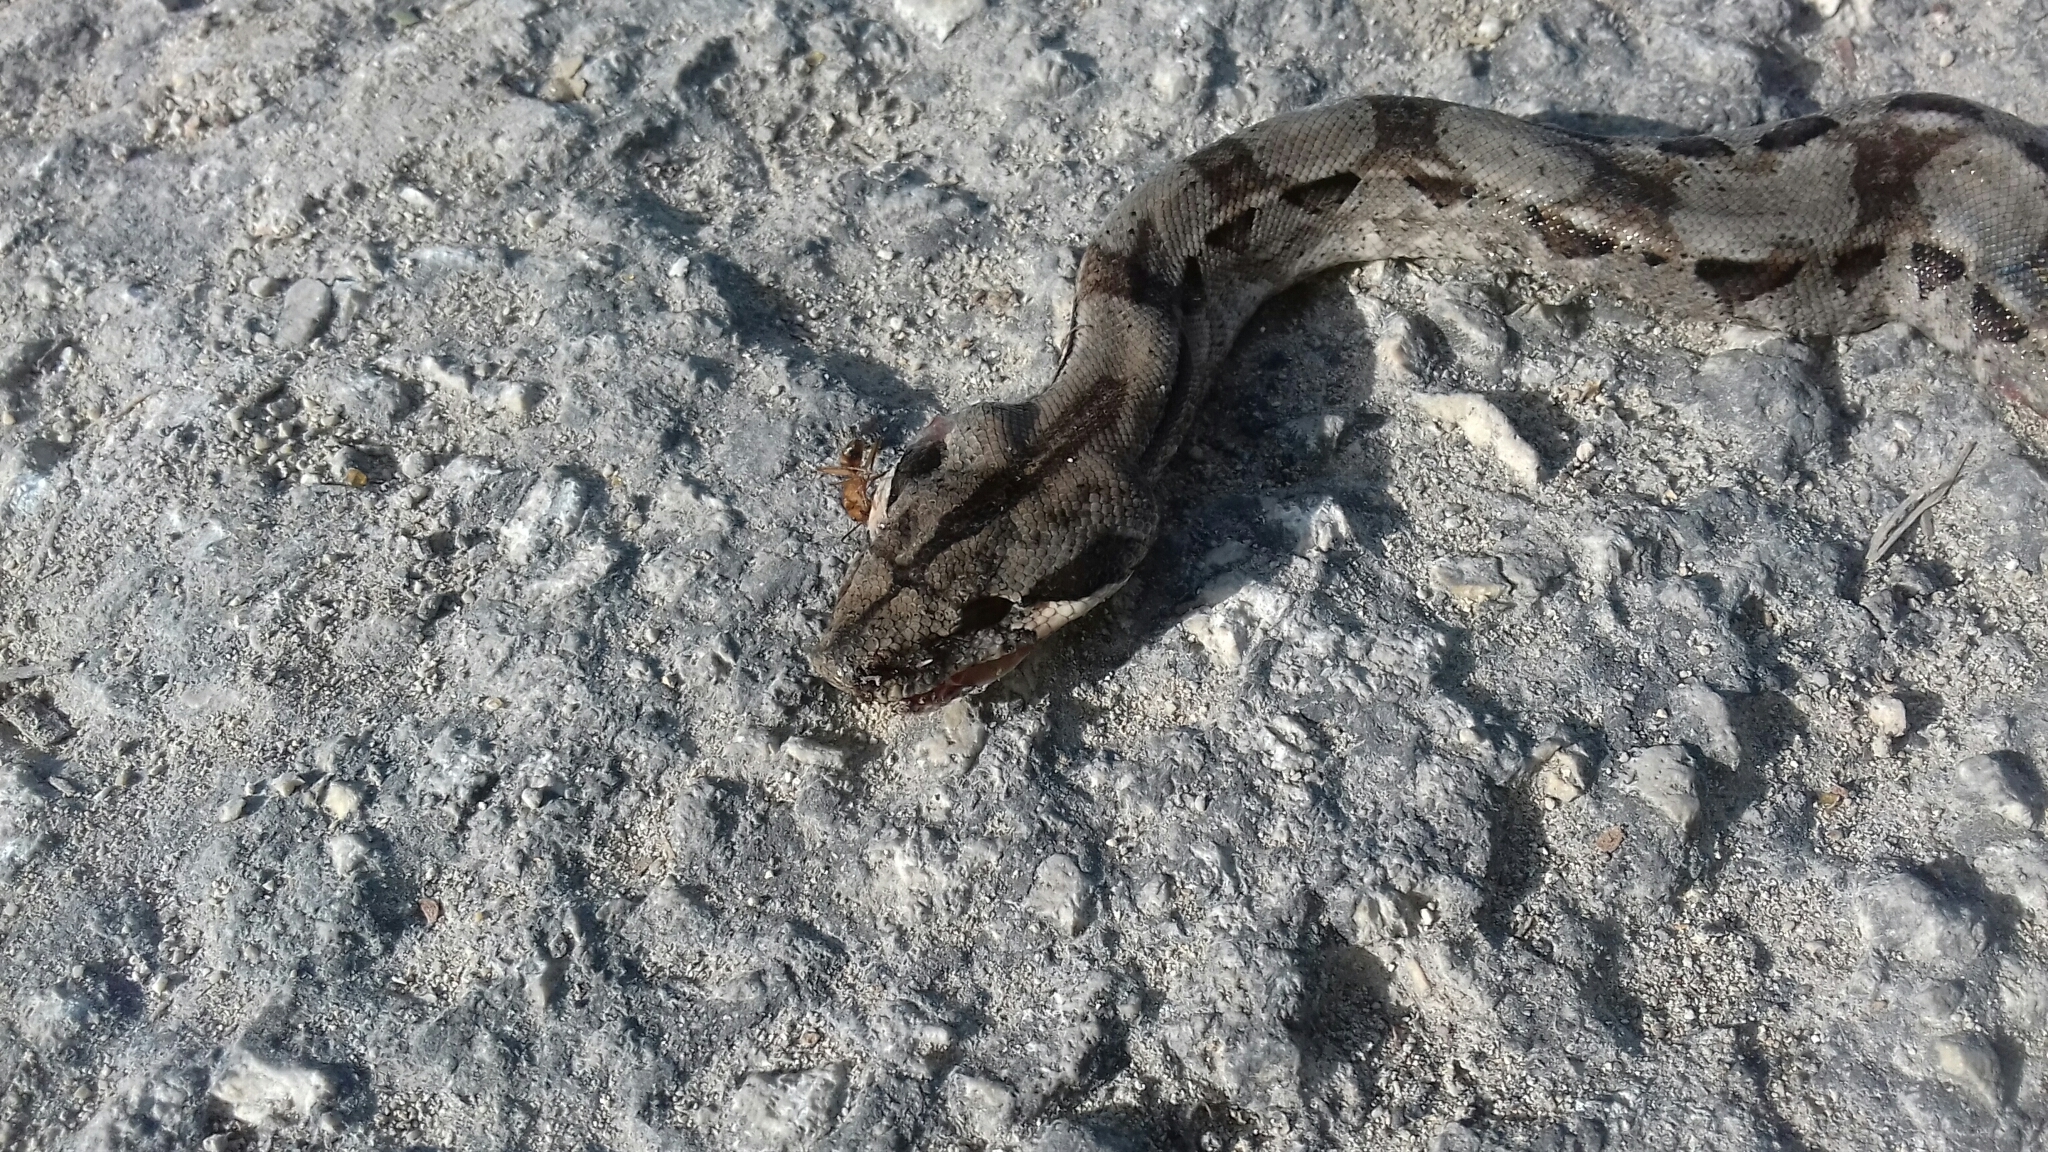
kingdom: Animalia
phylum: Chordata
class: Squamata
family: Boidae
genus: Boa
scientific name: Boa imperator
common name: Central american boa
